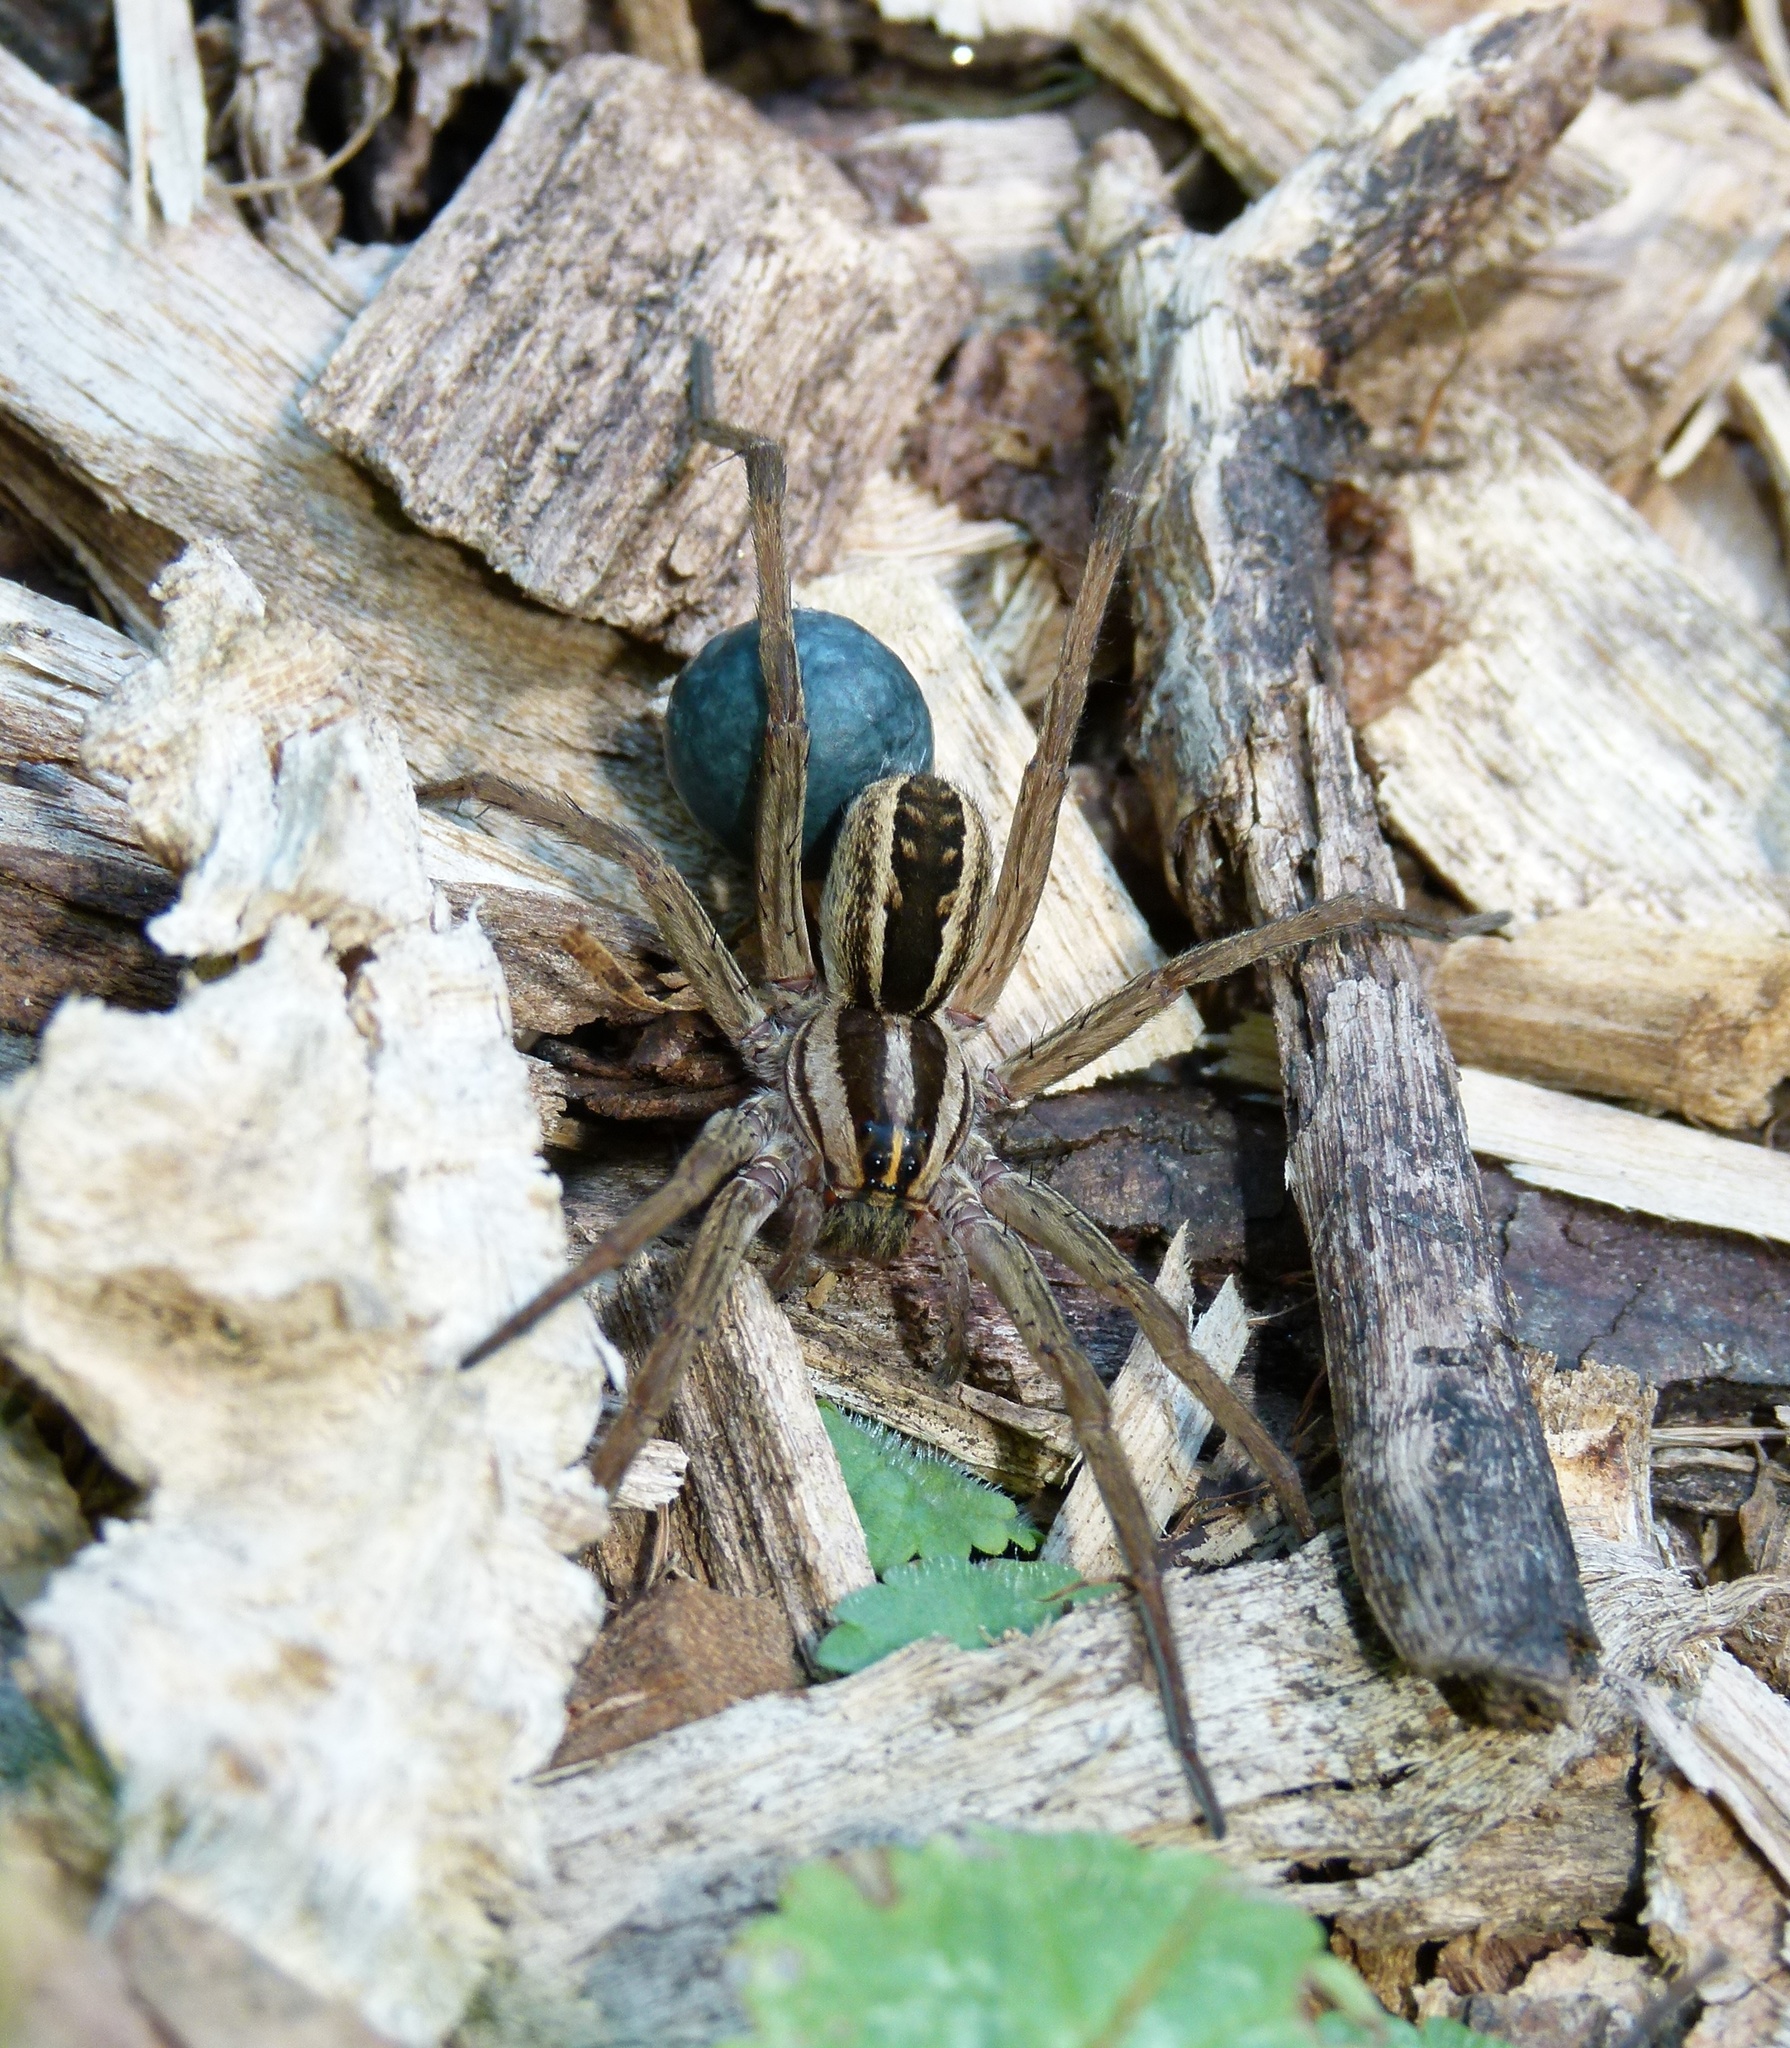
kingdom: Animalia
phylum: Arthropoda
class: Arachnida
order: Araneae
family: Lycosidae
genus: Rabidosa
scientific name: Rabidosa rabida
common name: Rabid wolf spider
